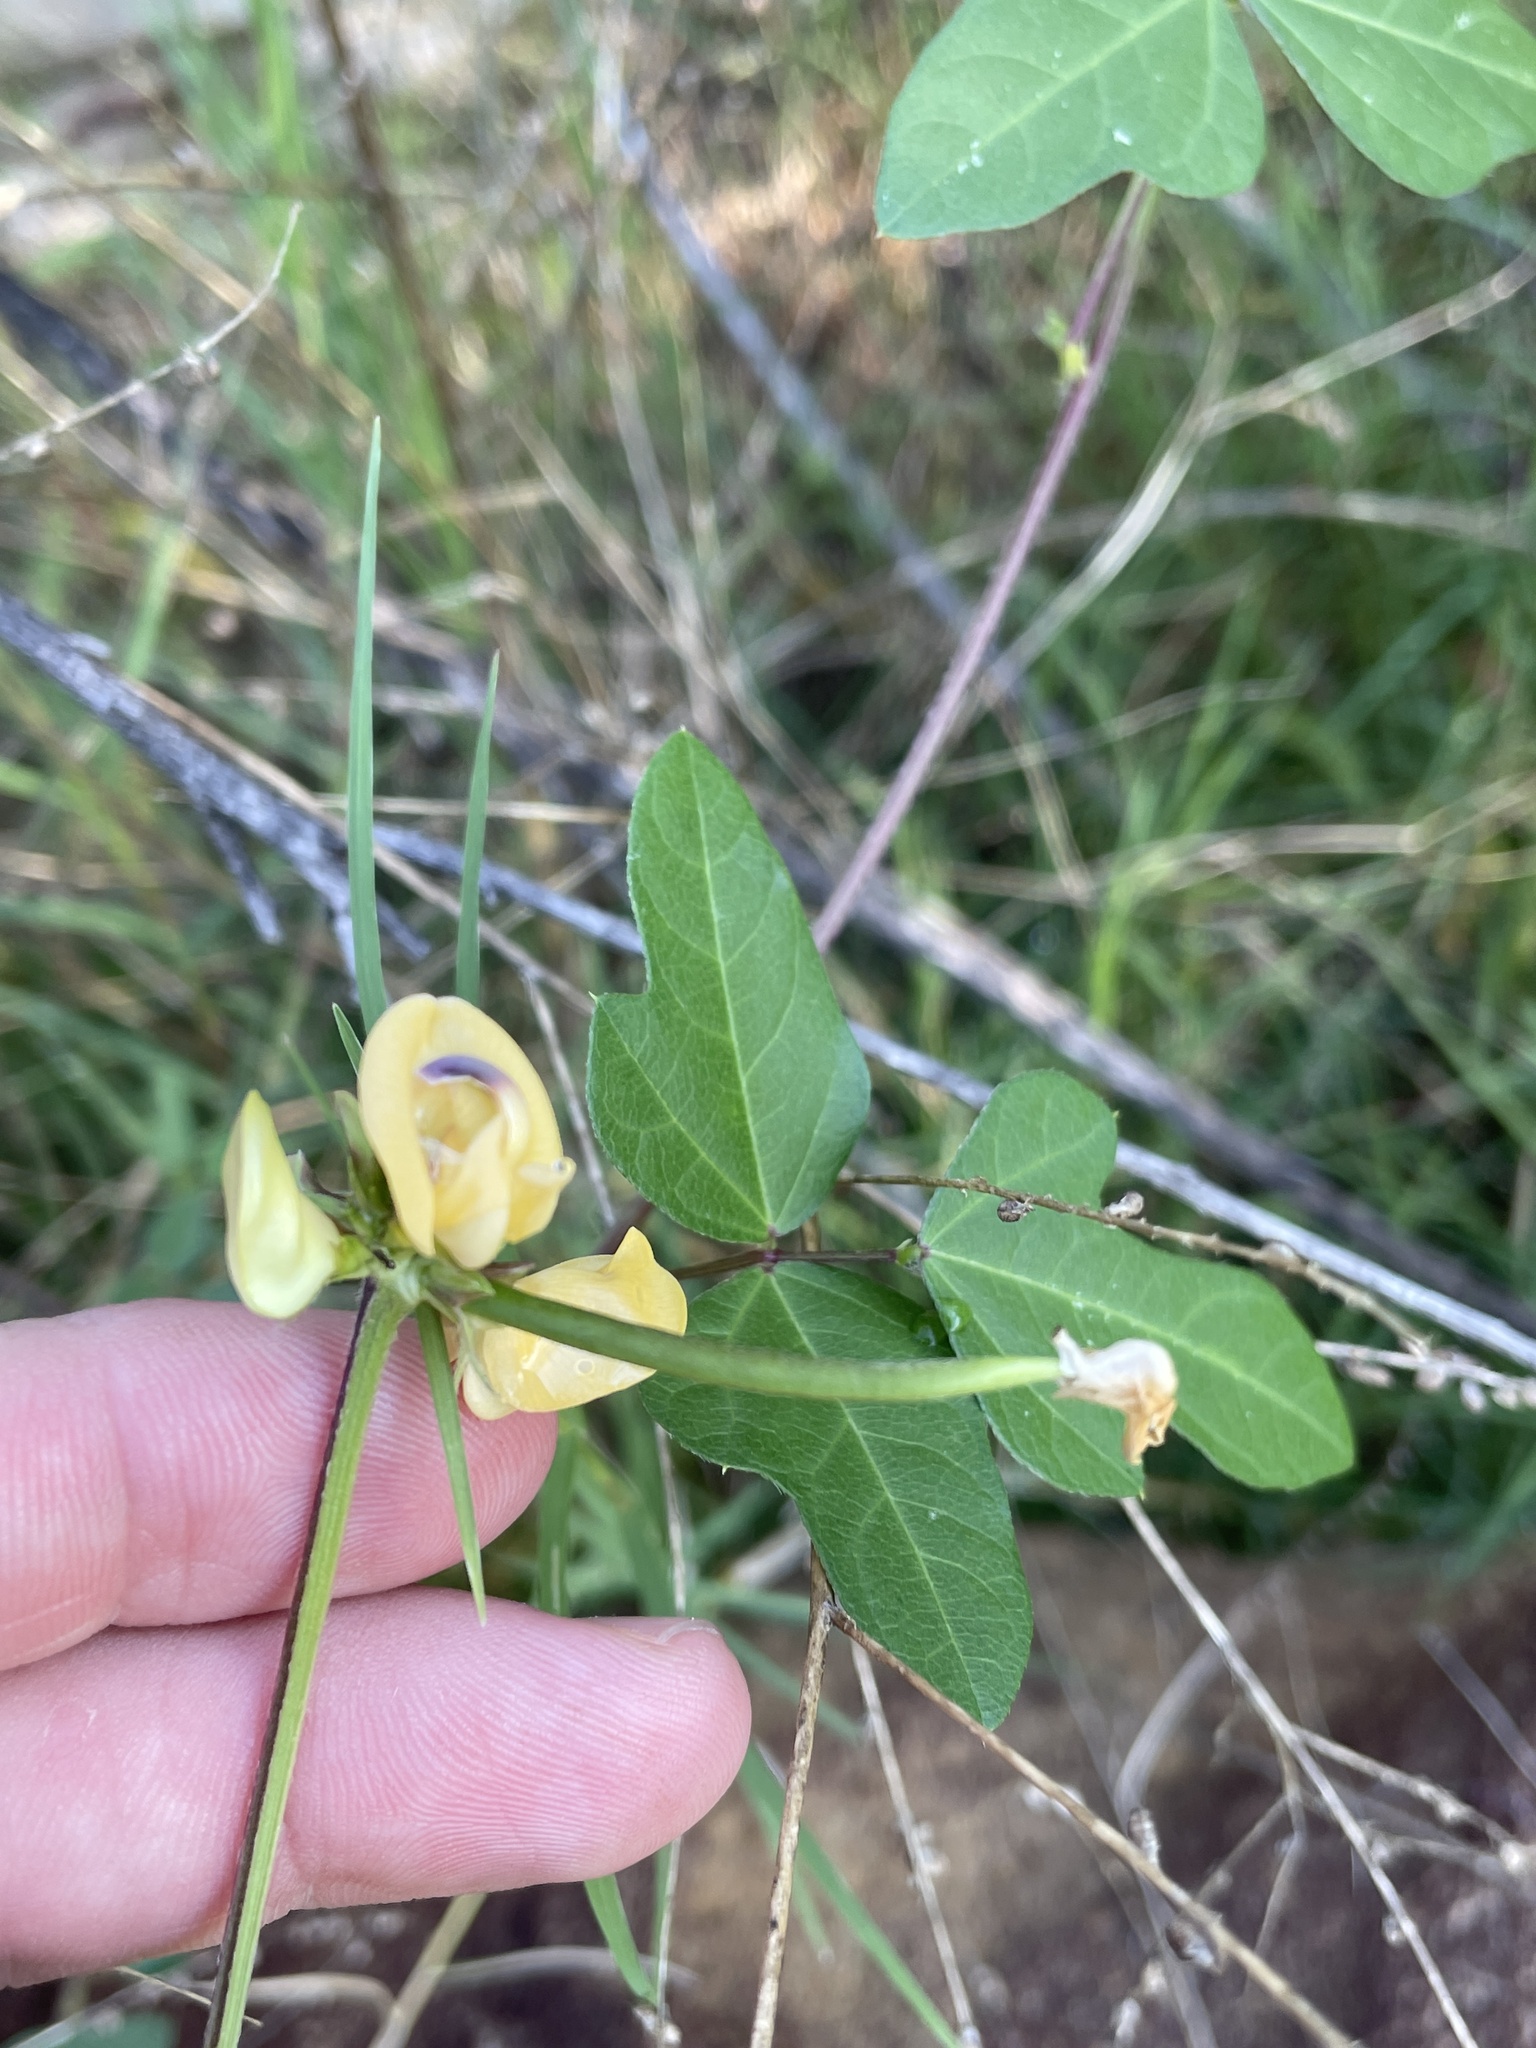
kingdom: Plantae
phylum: Tracheophyta
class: Magnoliopsida
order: Fabales
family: Fabaceae
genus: Strophostyles
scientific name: Strophostyles helvola
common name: Trailing wild bean
